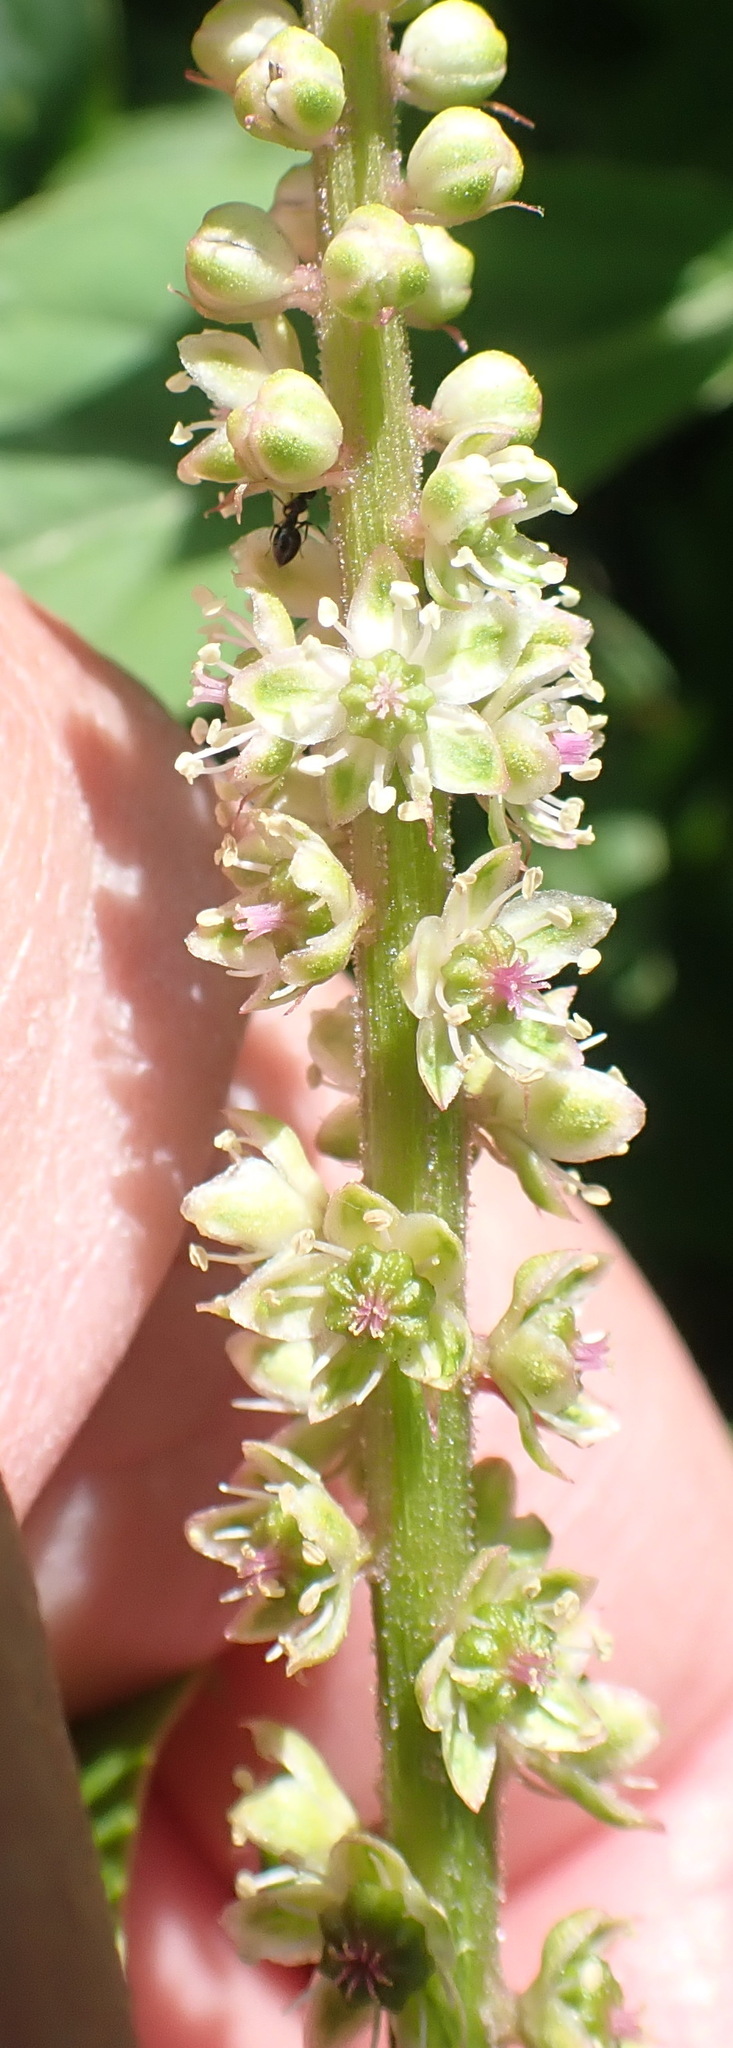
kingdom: Plantae
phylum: Tracheophyta
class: Magnoliopsida
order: Caryophyllales
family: Phytolaccaceae
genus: Phytolacca
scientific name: Phytolacca icosandra
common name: Button pokeweed
